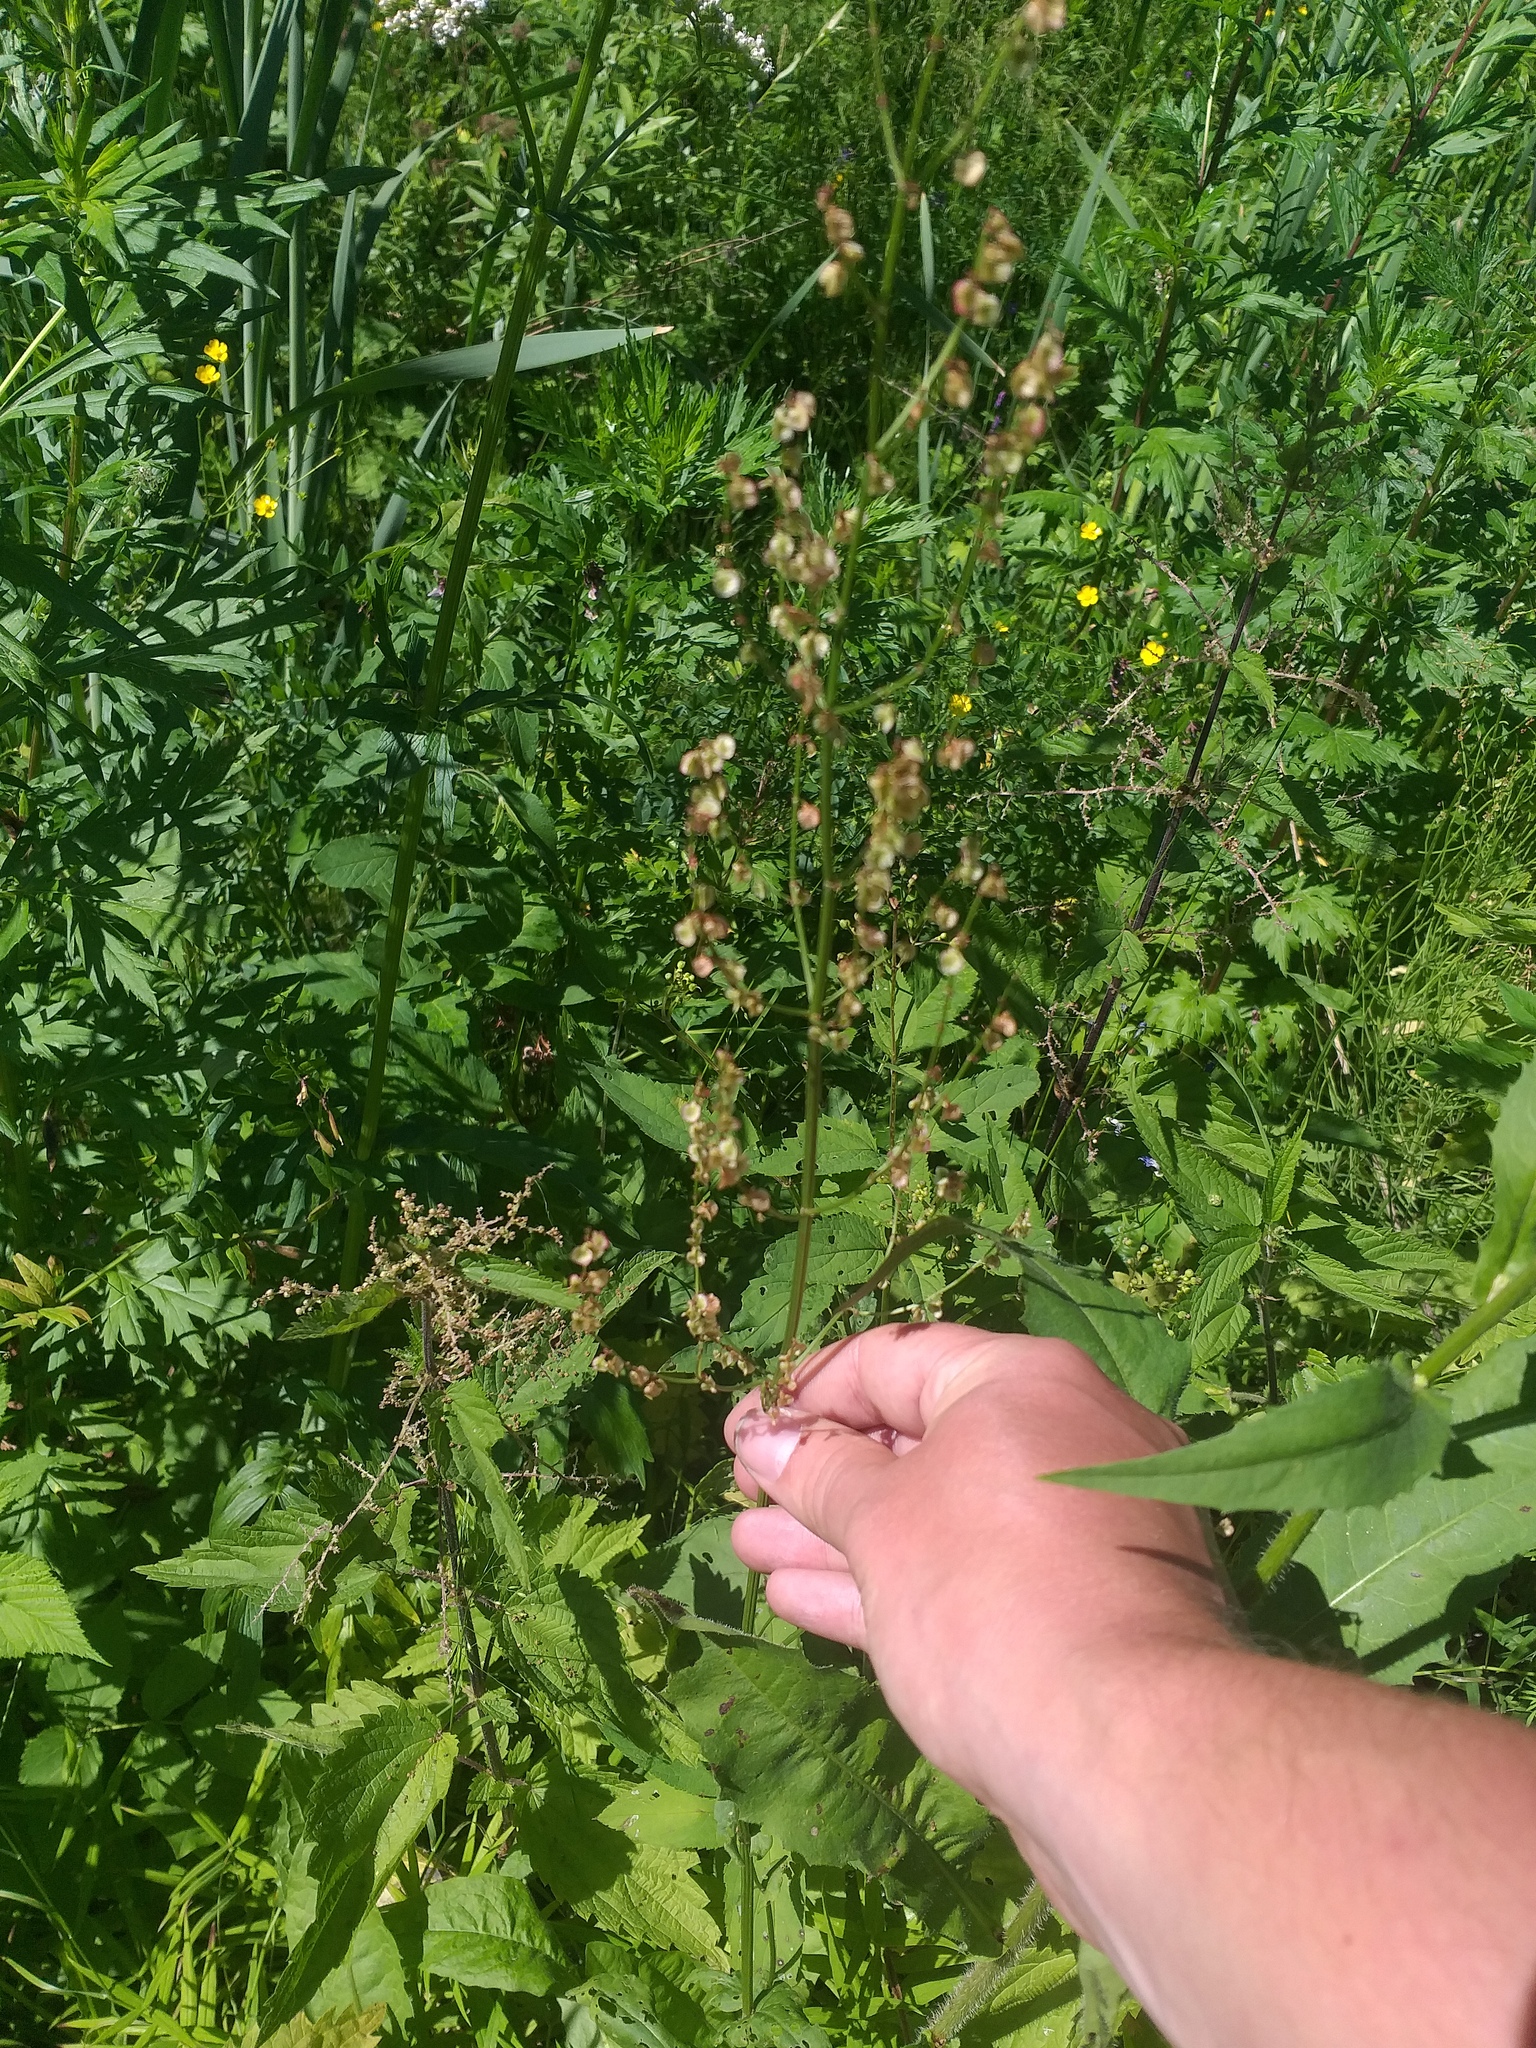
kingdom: Plantae
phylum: Tracheophyta
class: Magnoliopsida
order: Caryophyllales
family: Polygonaceae
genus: Rumex
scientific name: Rumex acetosa
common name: Garden sorrel
